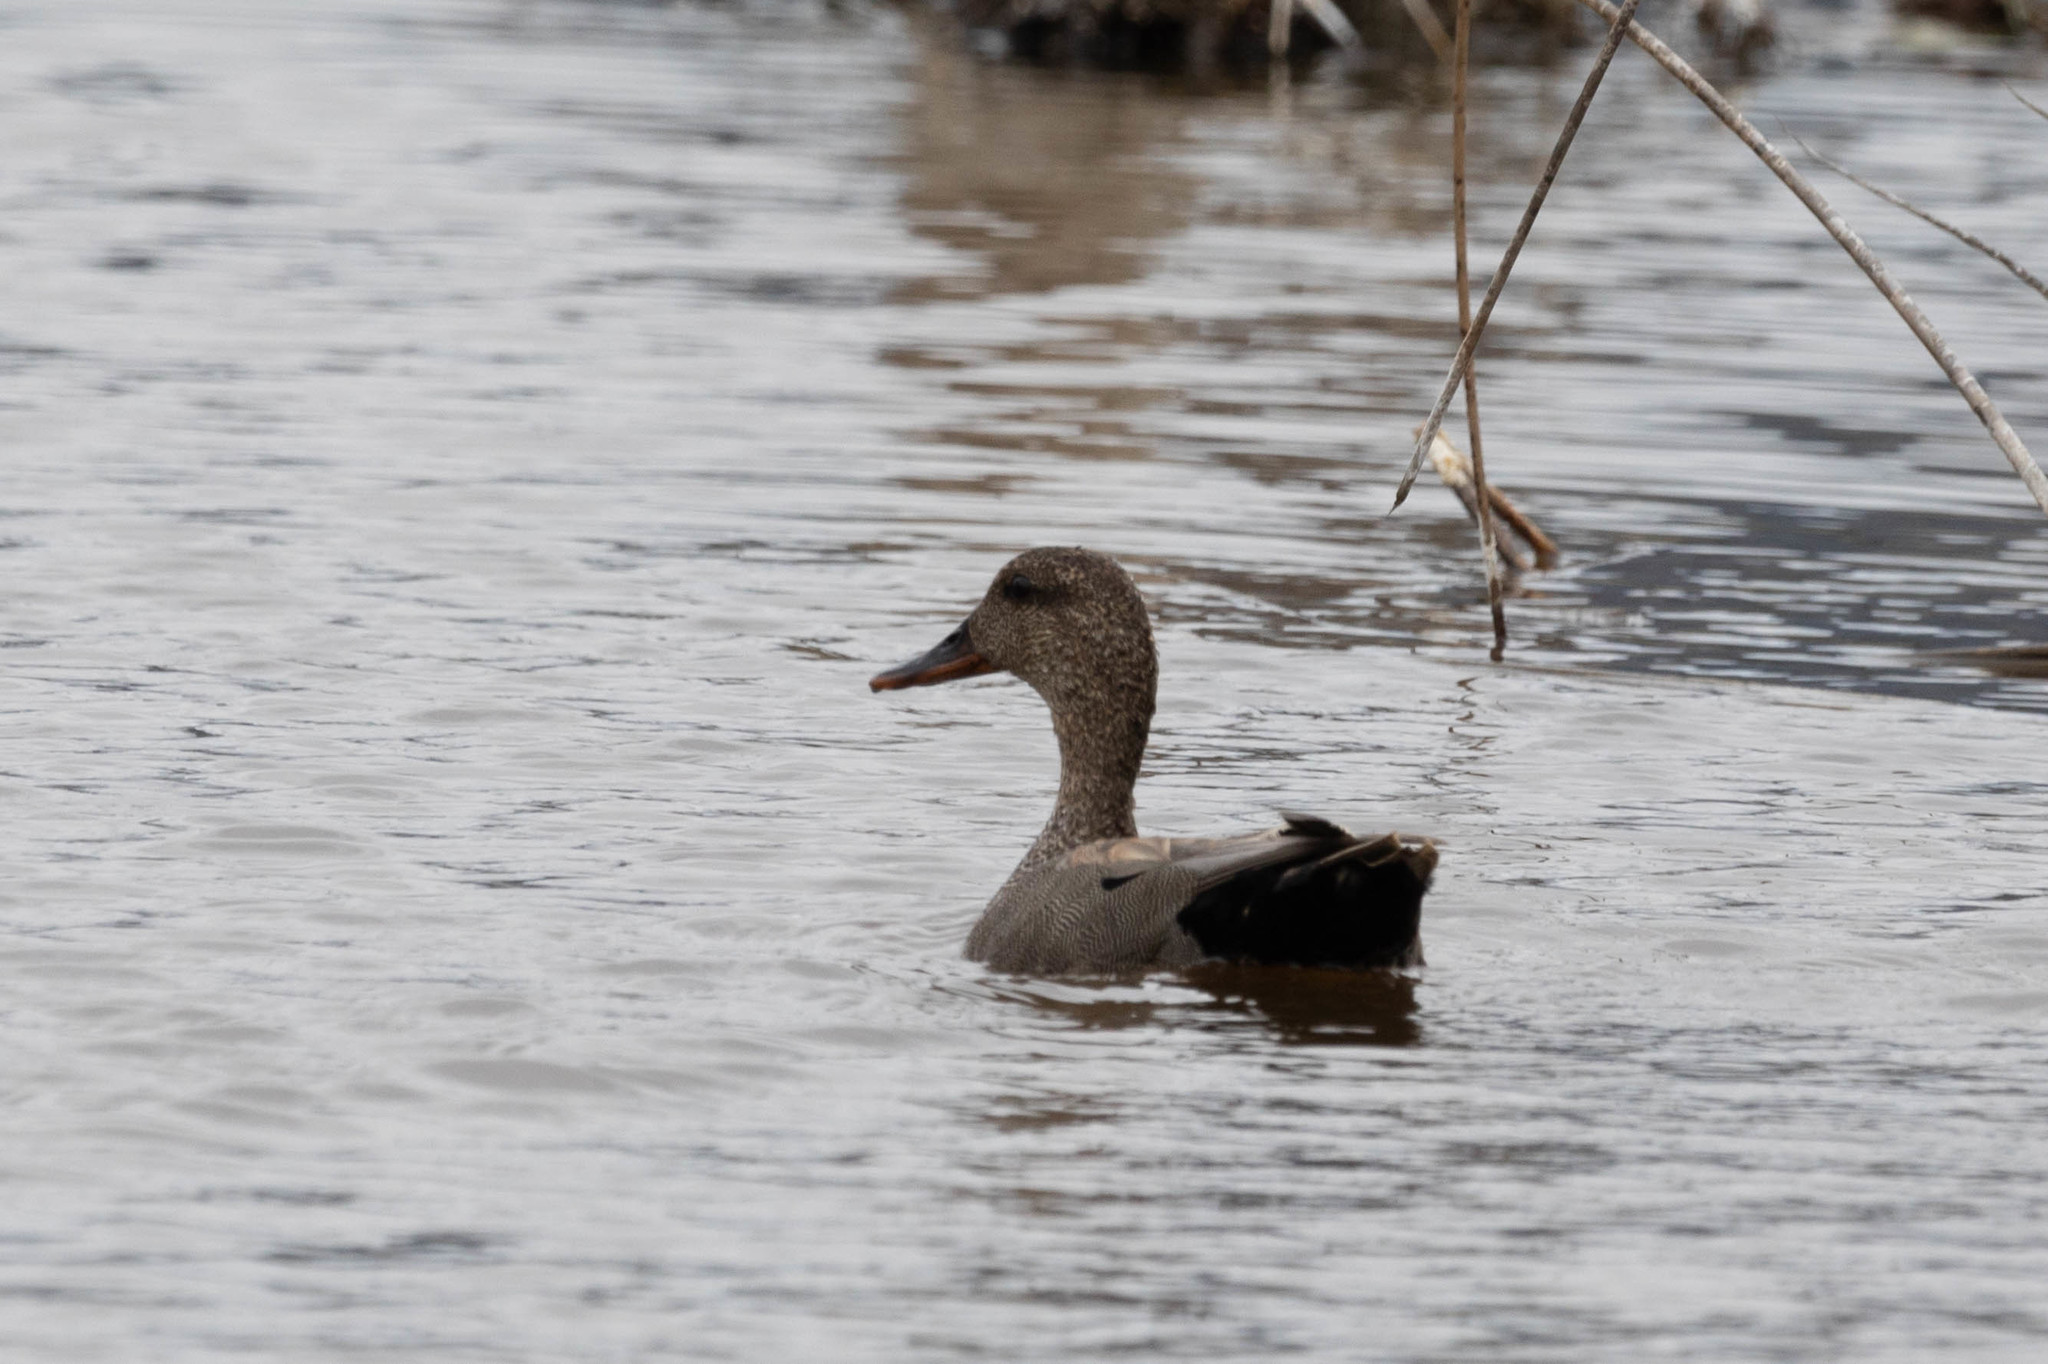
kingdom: Animalia
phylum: Chordata
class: Aves
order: Anseriformes
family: Anatidae
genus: Mareca
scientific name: Mareca strepera
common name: Gadwall
